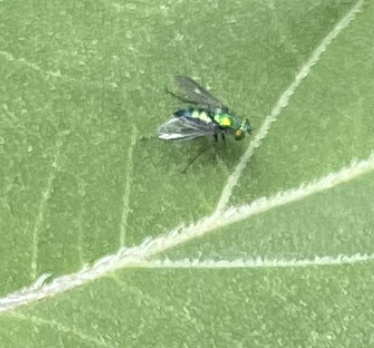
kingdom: Animalia
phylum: Arthropoda
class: Insecta
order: Diptera
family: Dolichopodidae
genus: Condylostylus
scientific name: Condylostylus longicornis
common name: Long-legged fly
